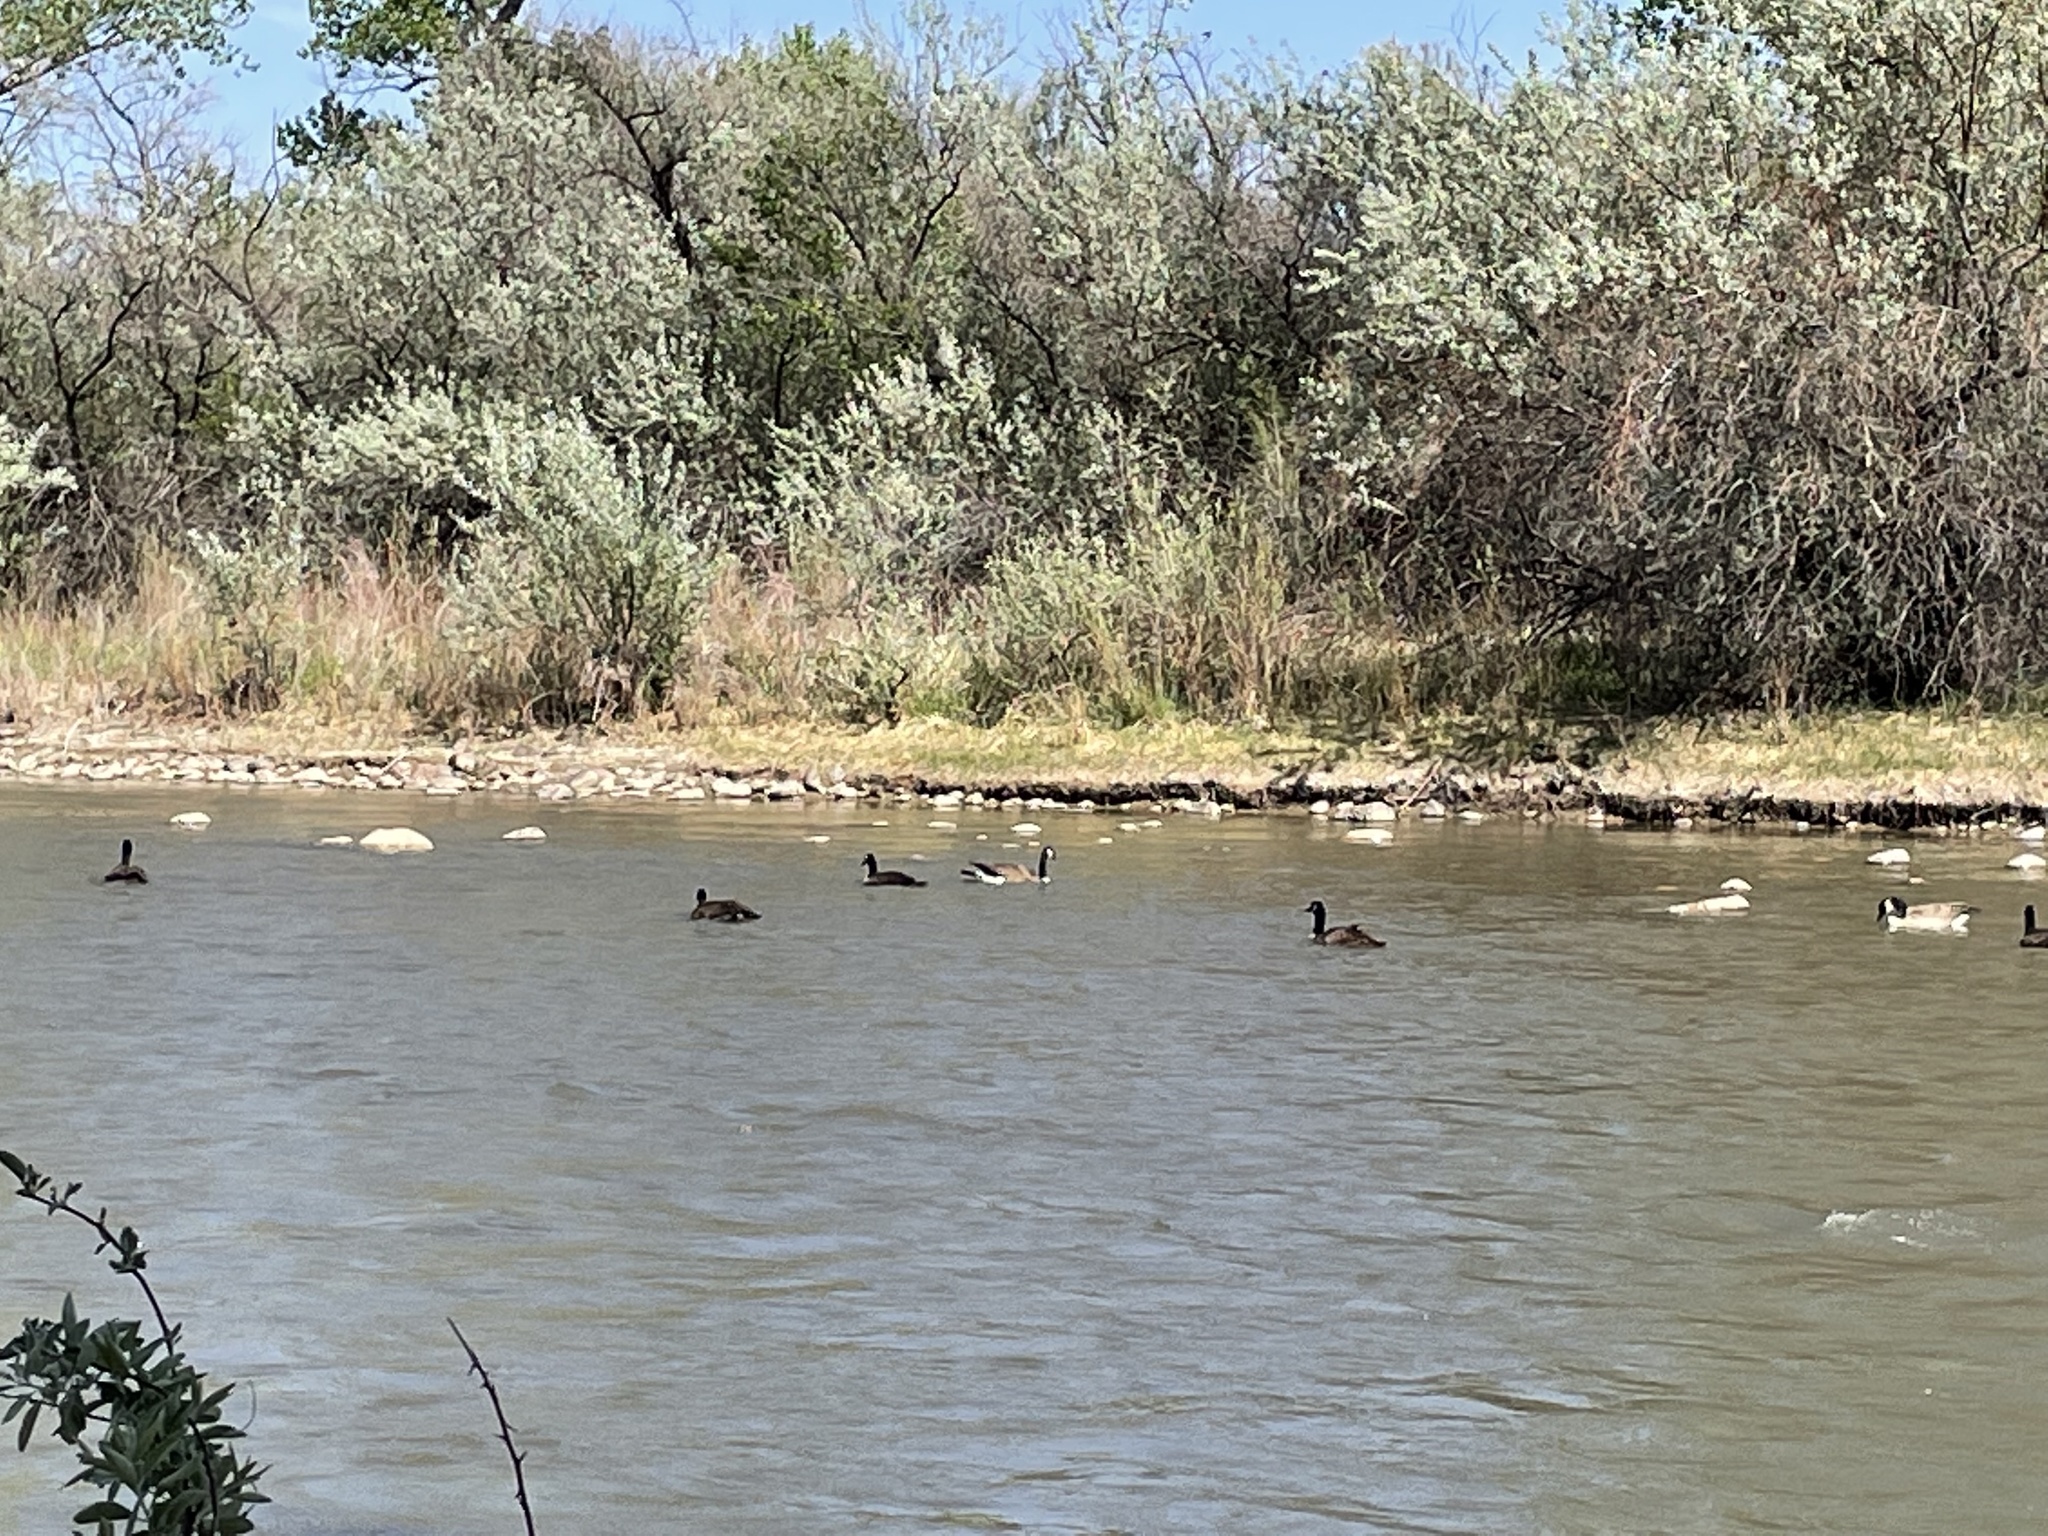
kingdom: Animalia
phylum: Chordata
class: Aves
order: Anseriformes
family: Anatidae
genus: Branta
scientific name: Branta canadensis
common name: Canada goose
